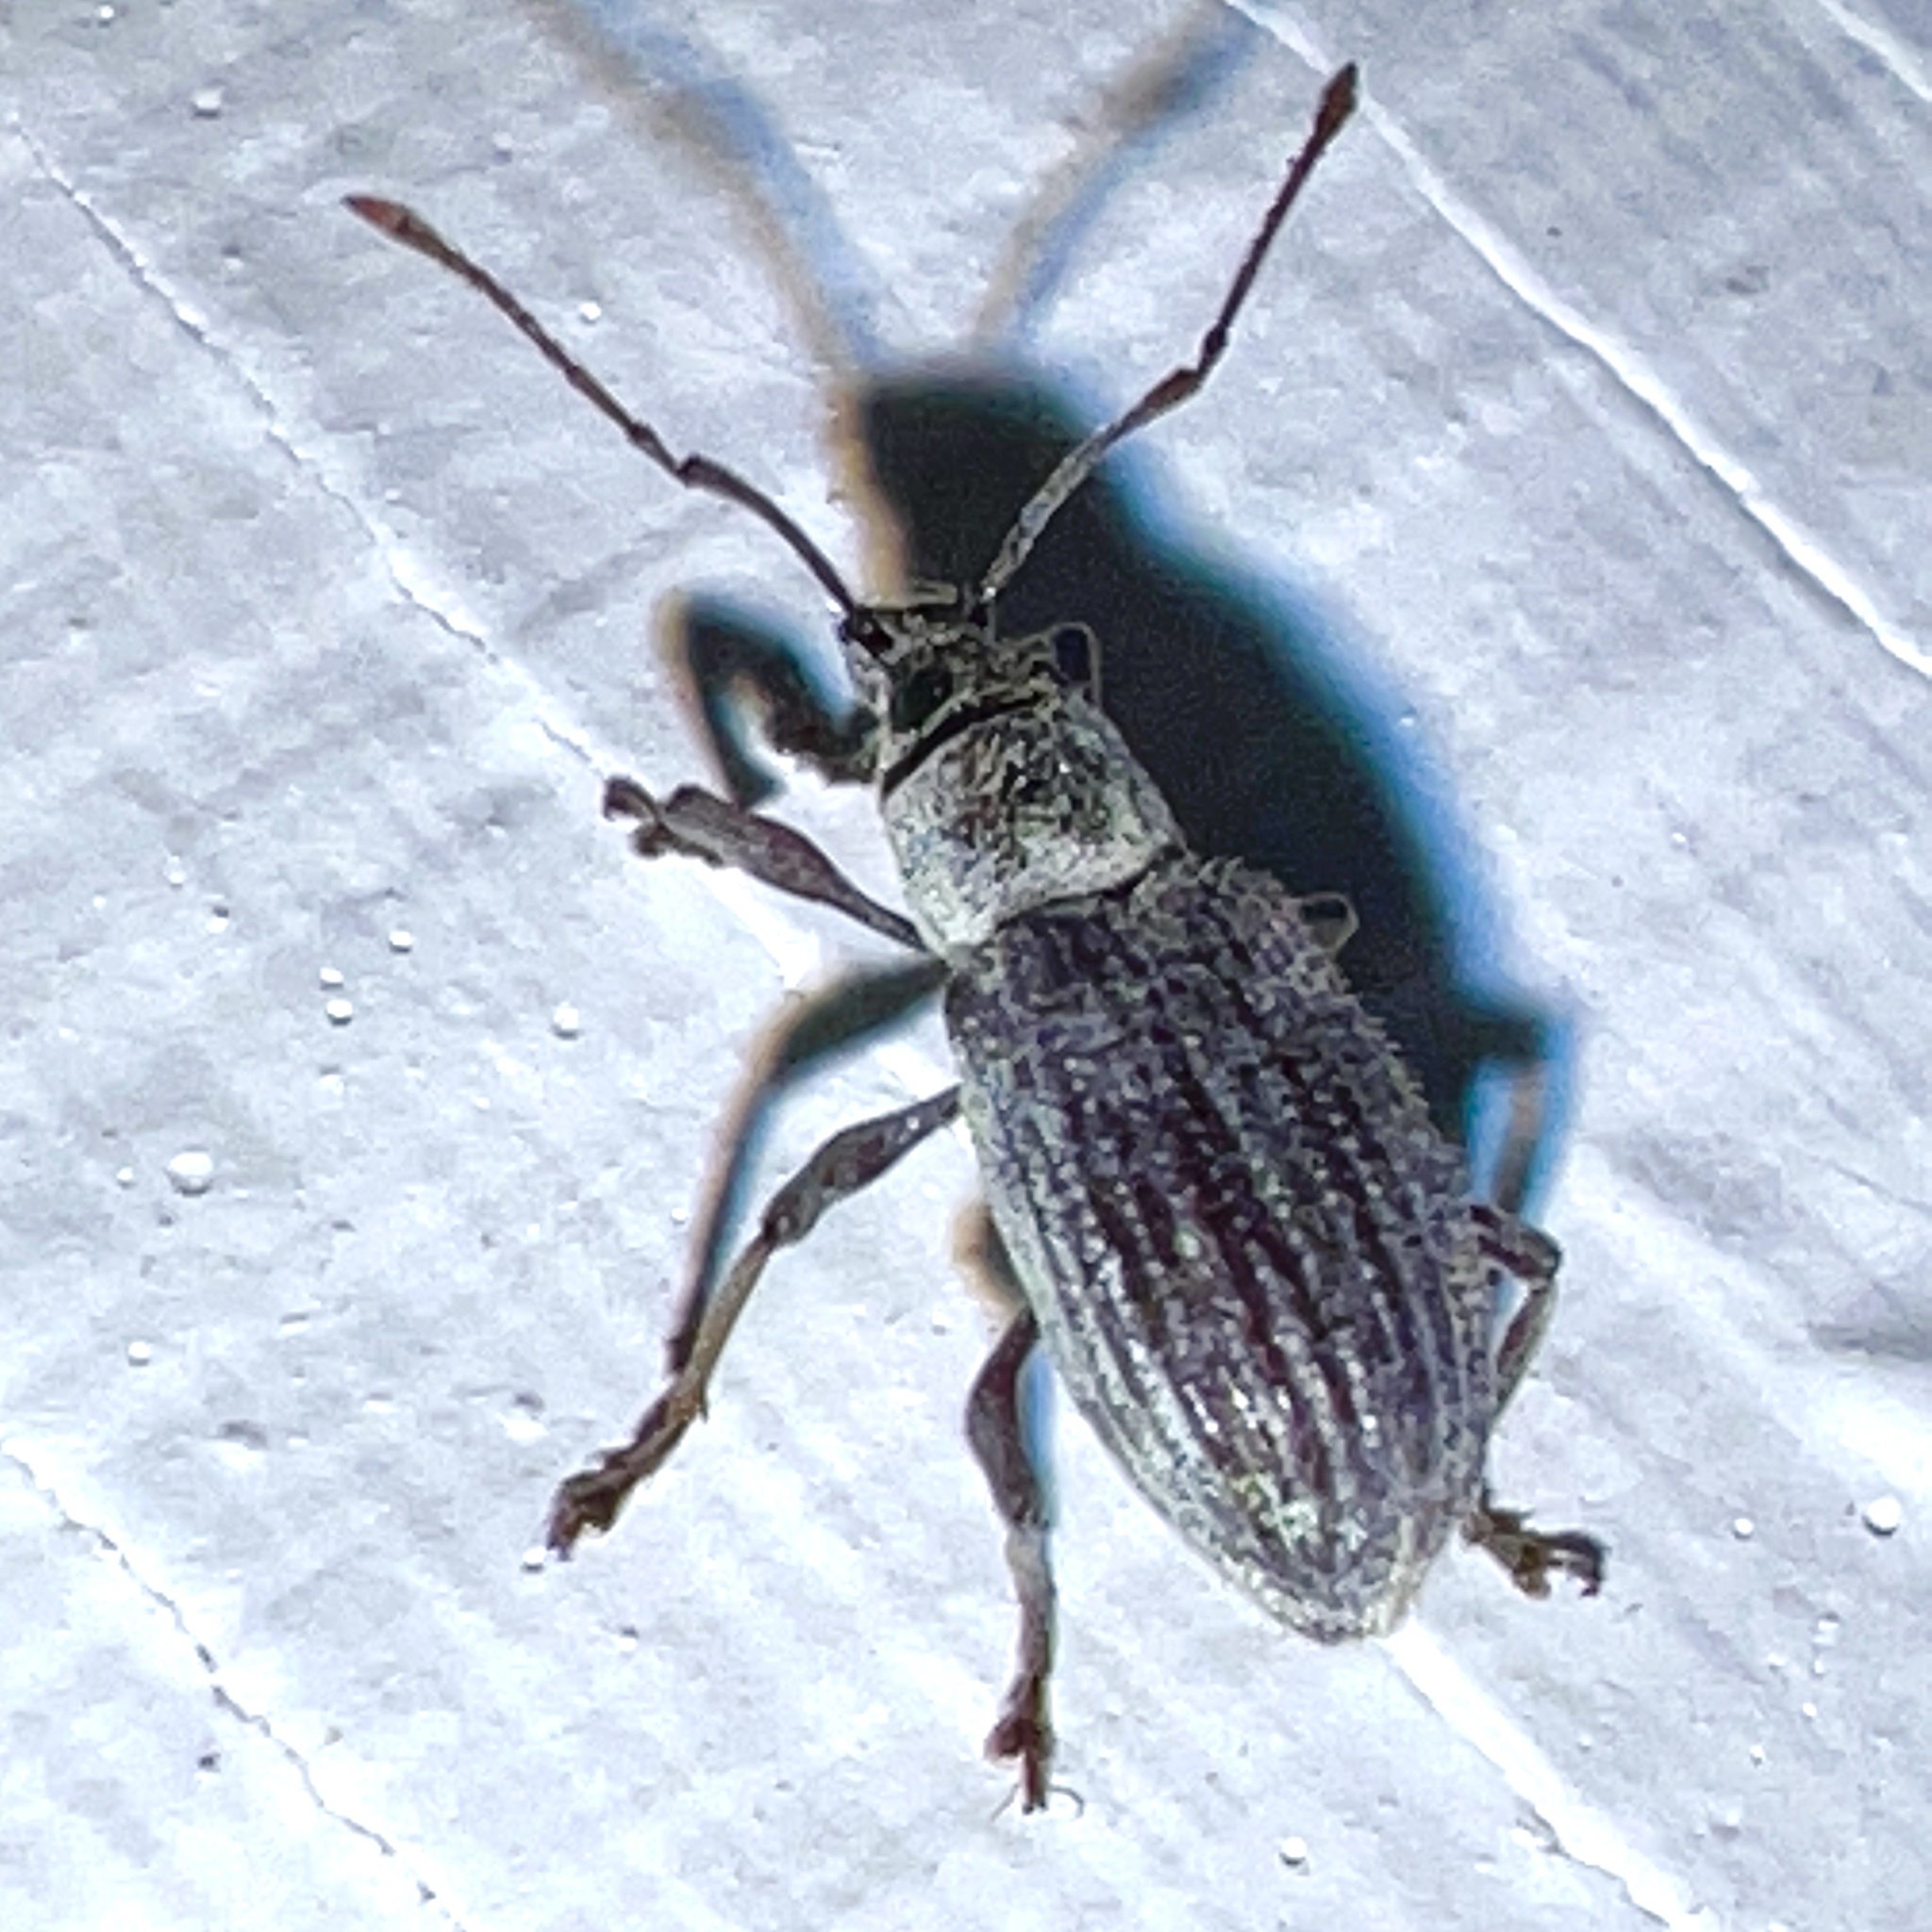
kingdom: Animalia
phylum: Arthropoda
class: Insecta
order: Coleoptera
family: Curculionidae
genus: Cyrtepistomus
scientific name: Cyrtepistomus castaneus
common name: Weevil
